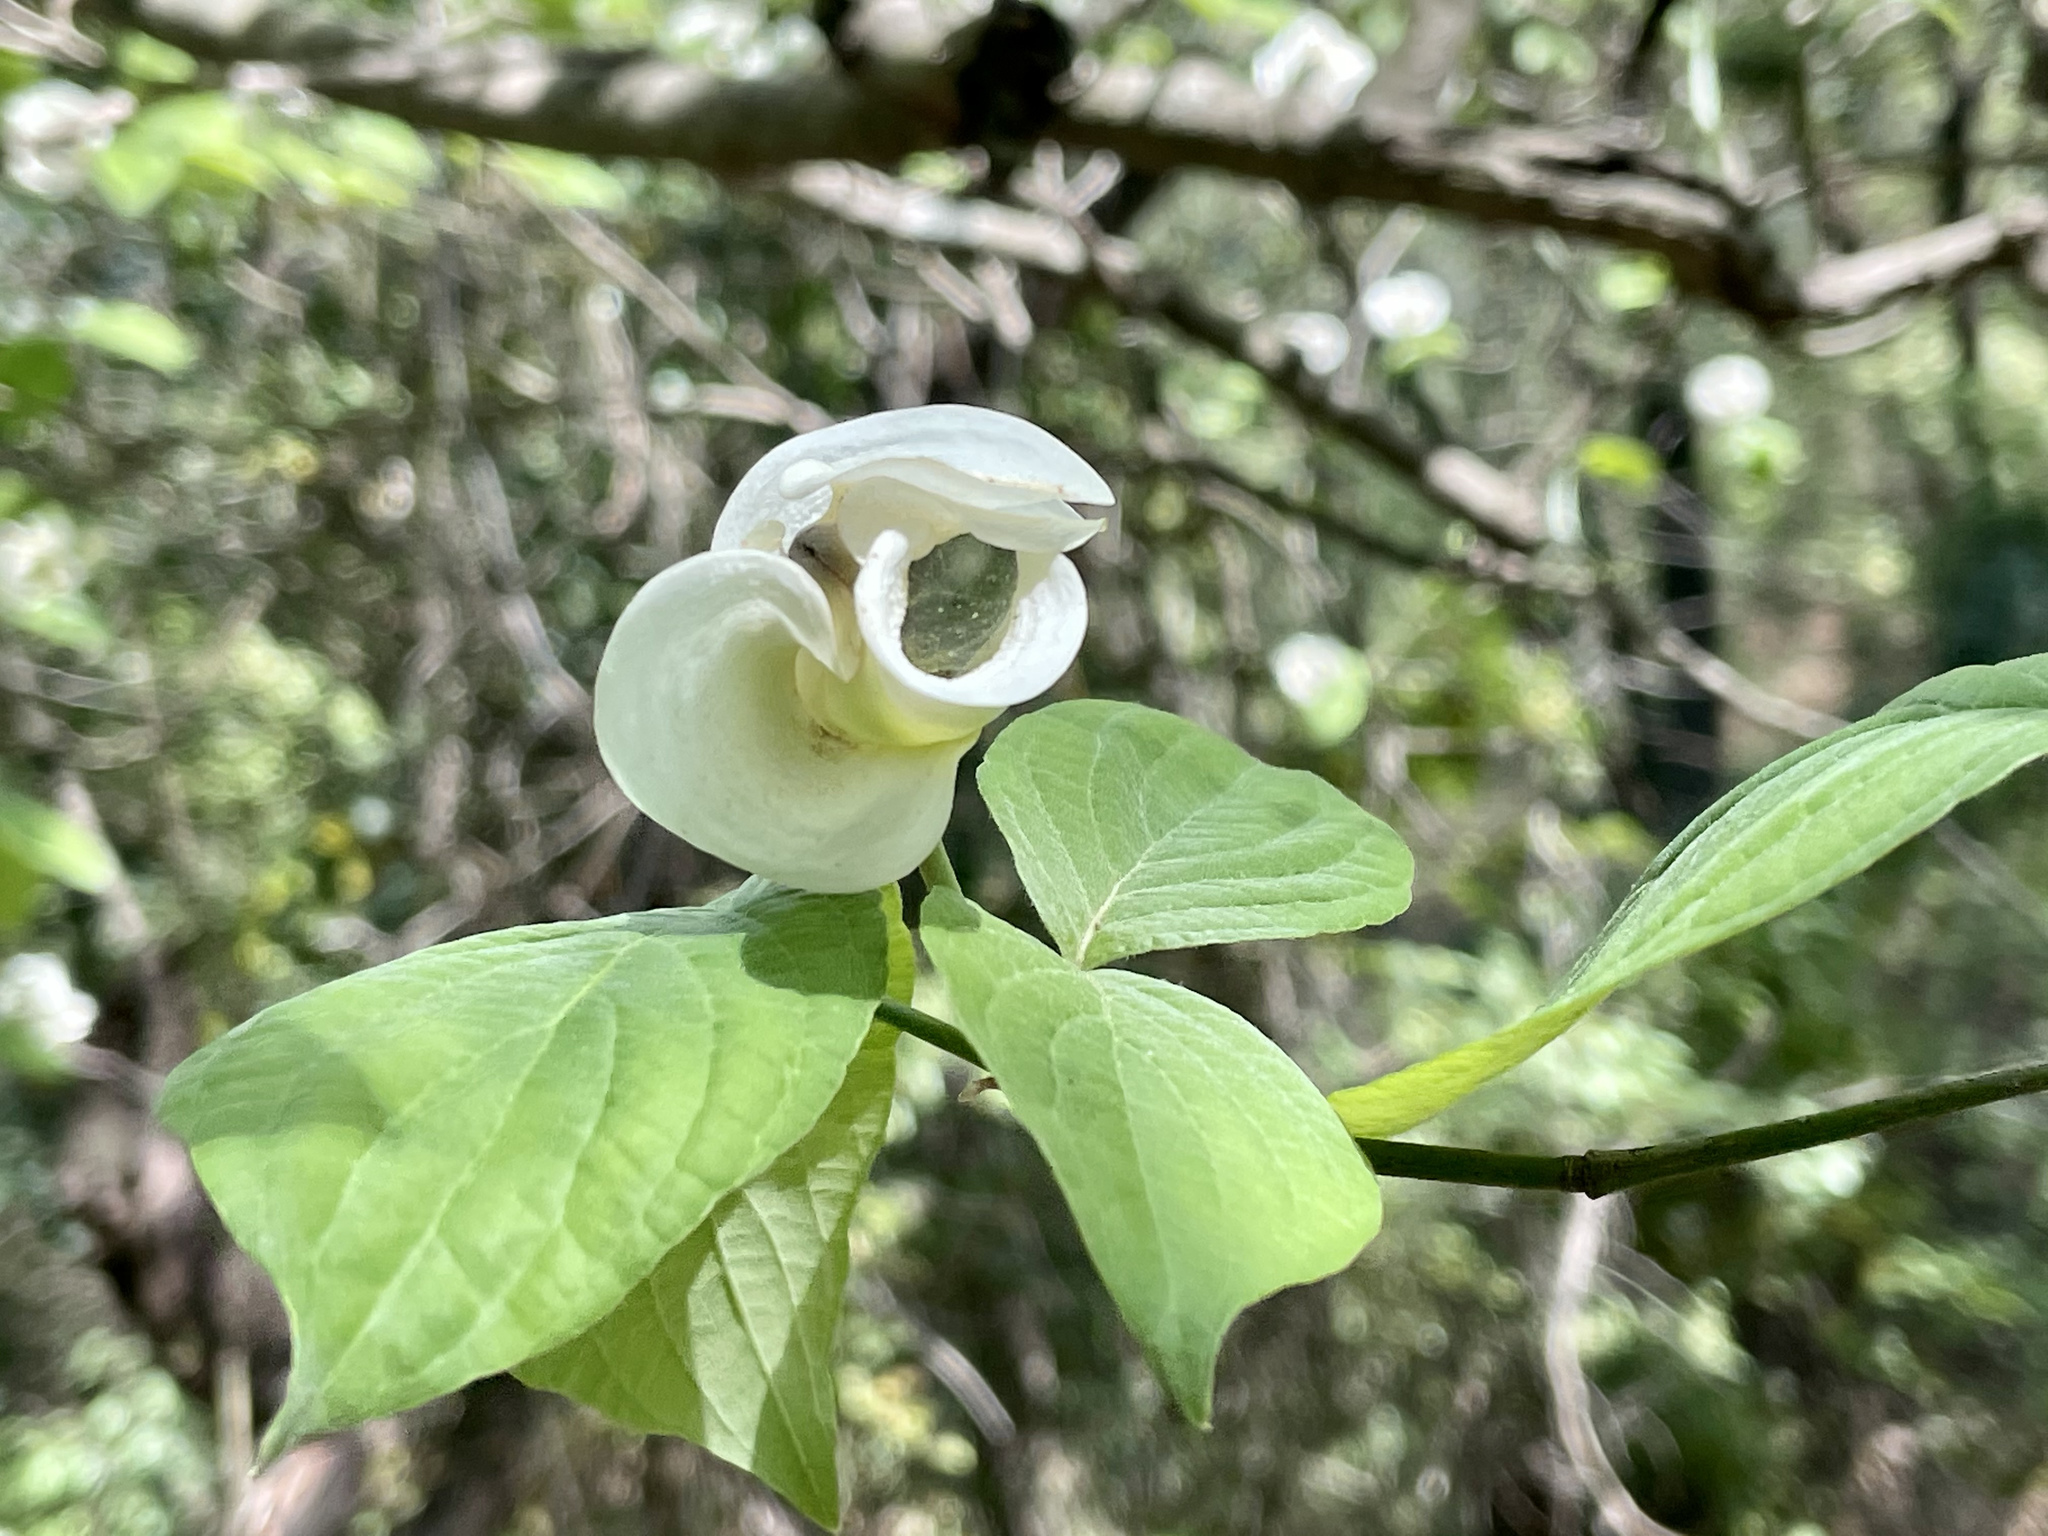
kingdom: Plantae
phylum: Tracheophyta
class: Magnoliopsida
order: Cornales
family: Cornaceae
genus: Cornus
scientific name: Cornus florida
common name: Flowering dogwood
